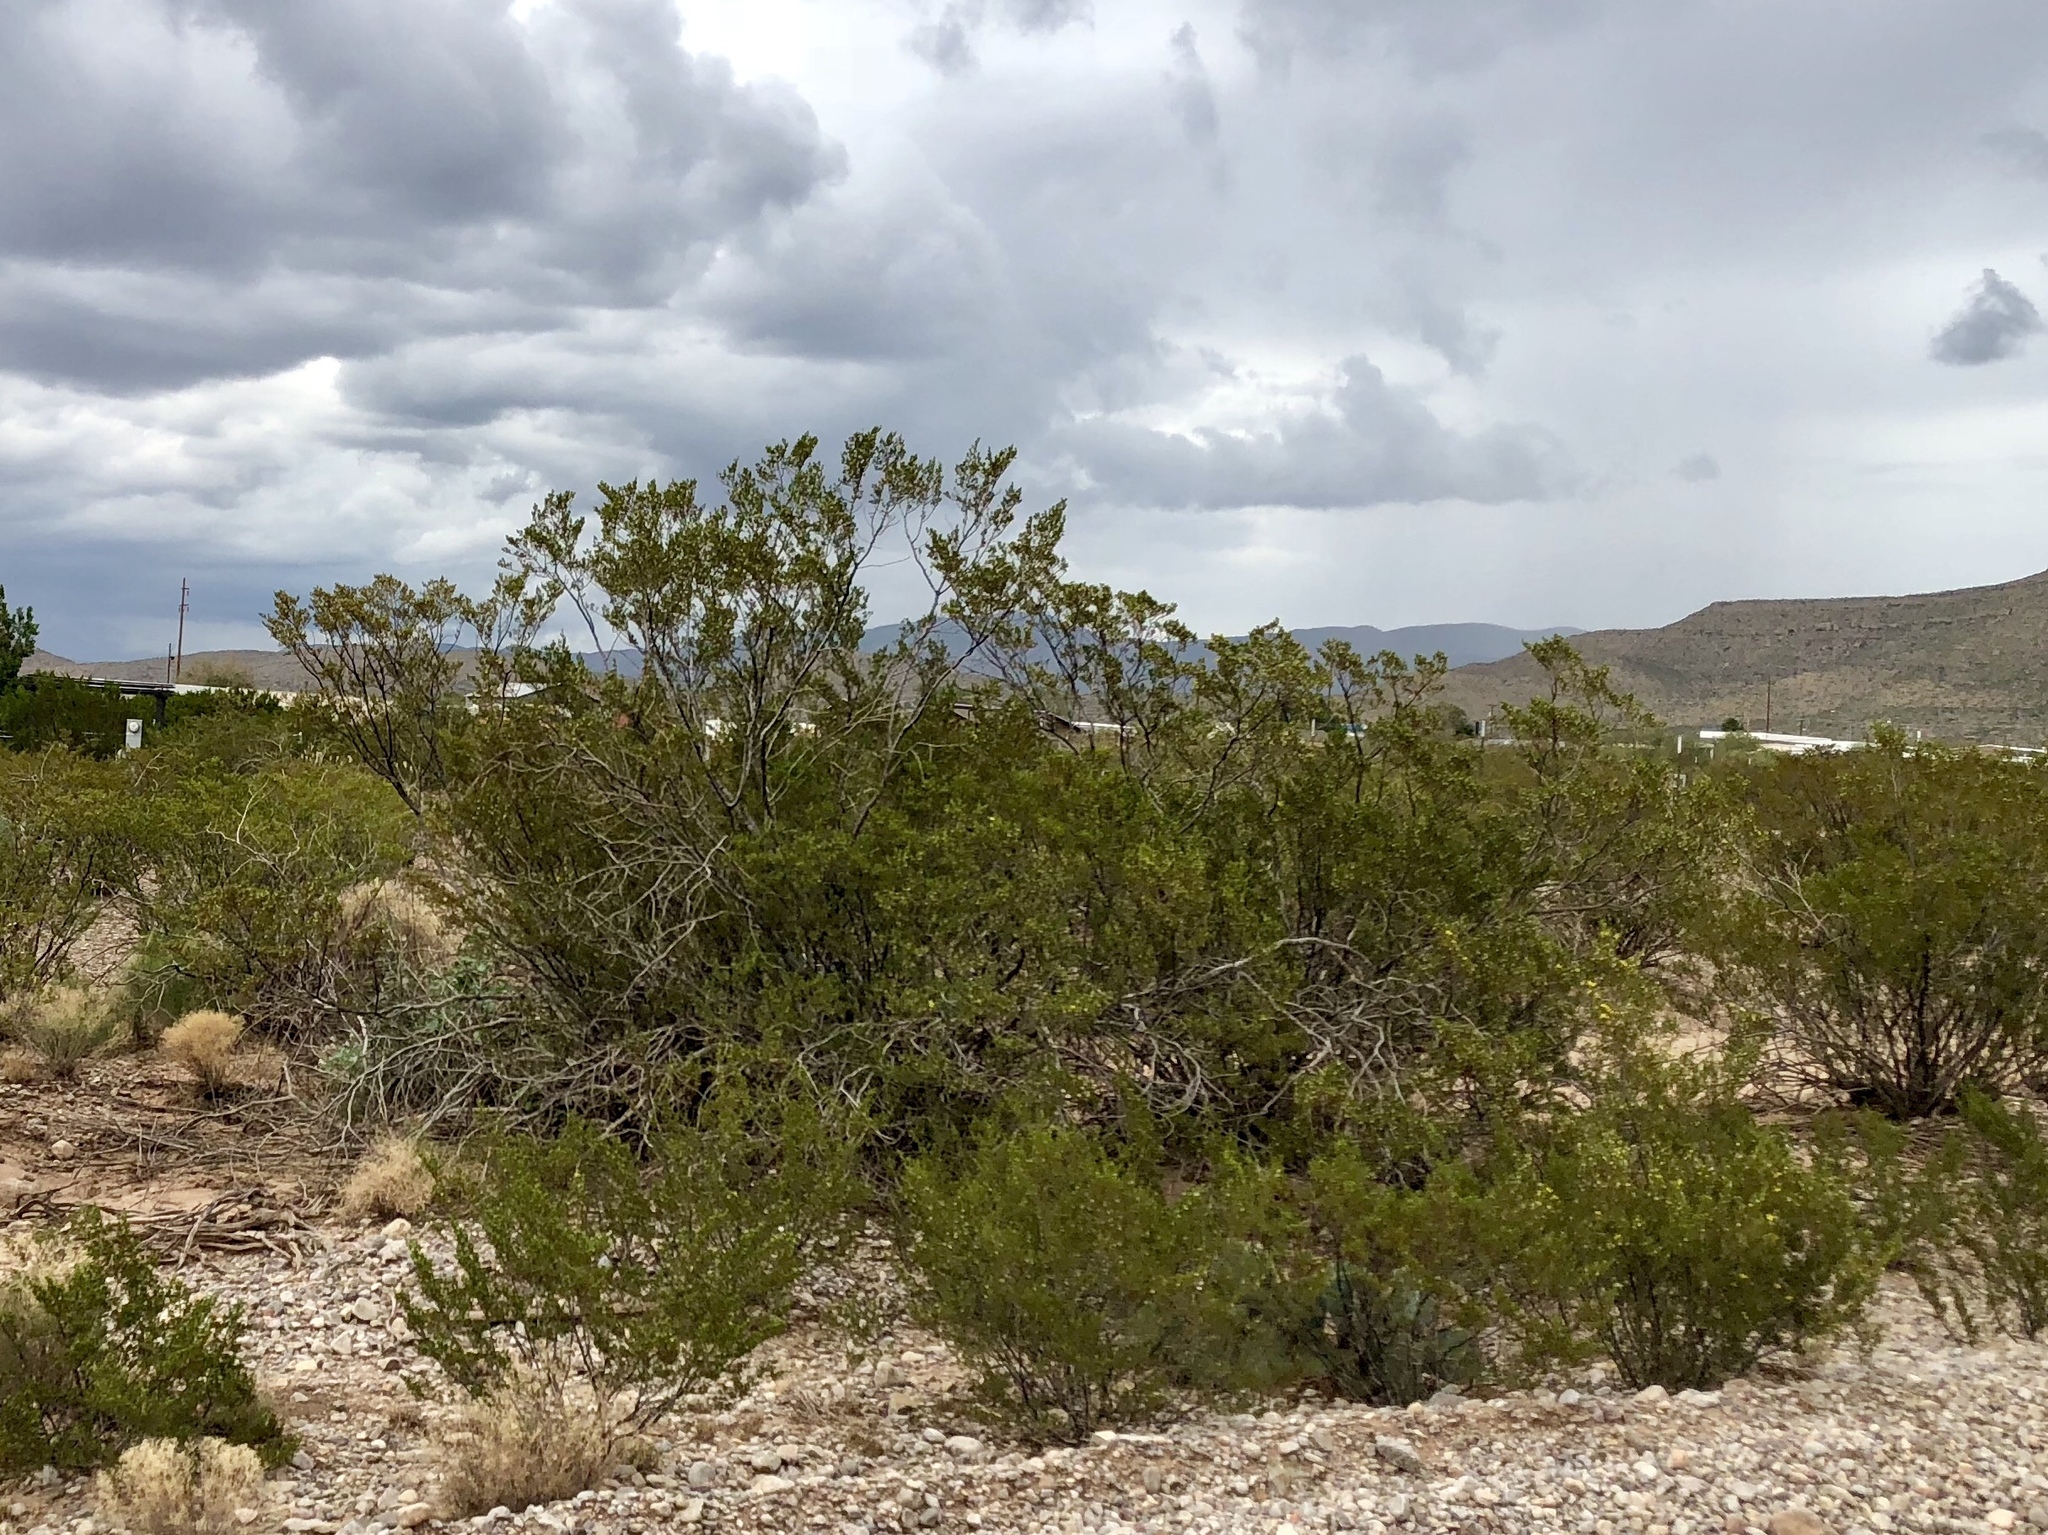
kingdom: Plantae
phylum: Tracheophyta
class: Magnoliopsida
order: Zygophyllales
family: Zygophyllaceae
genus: Larrea
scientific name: Larrea tridentata
